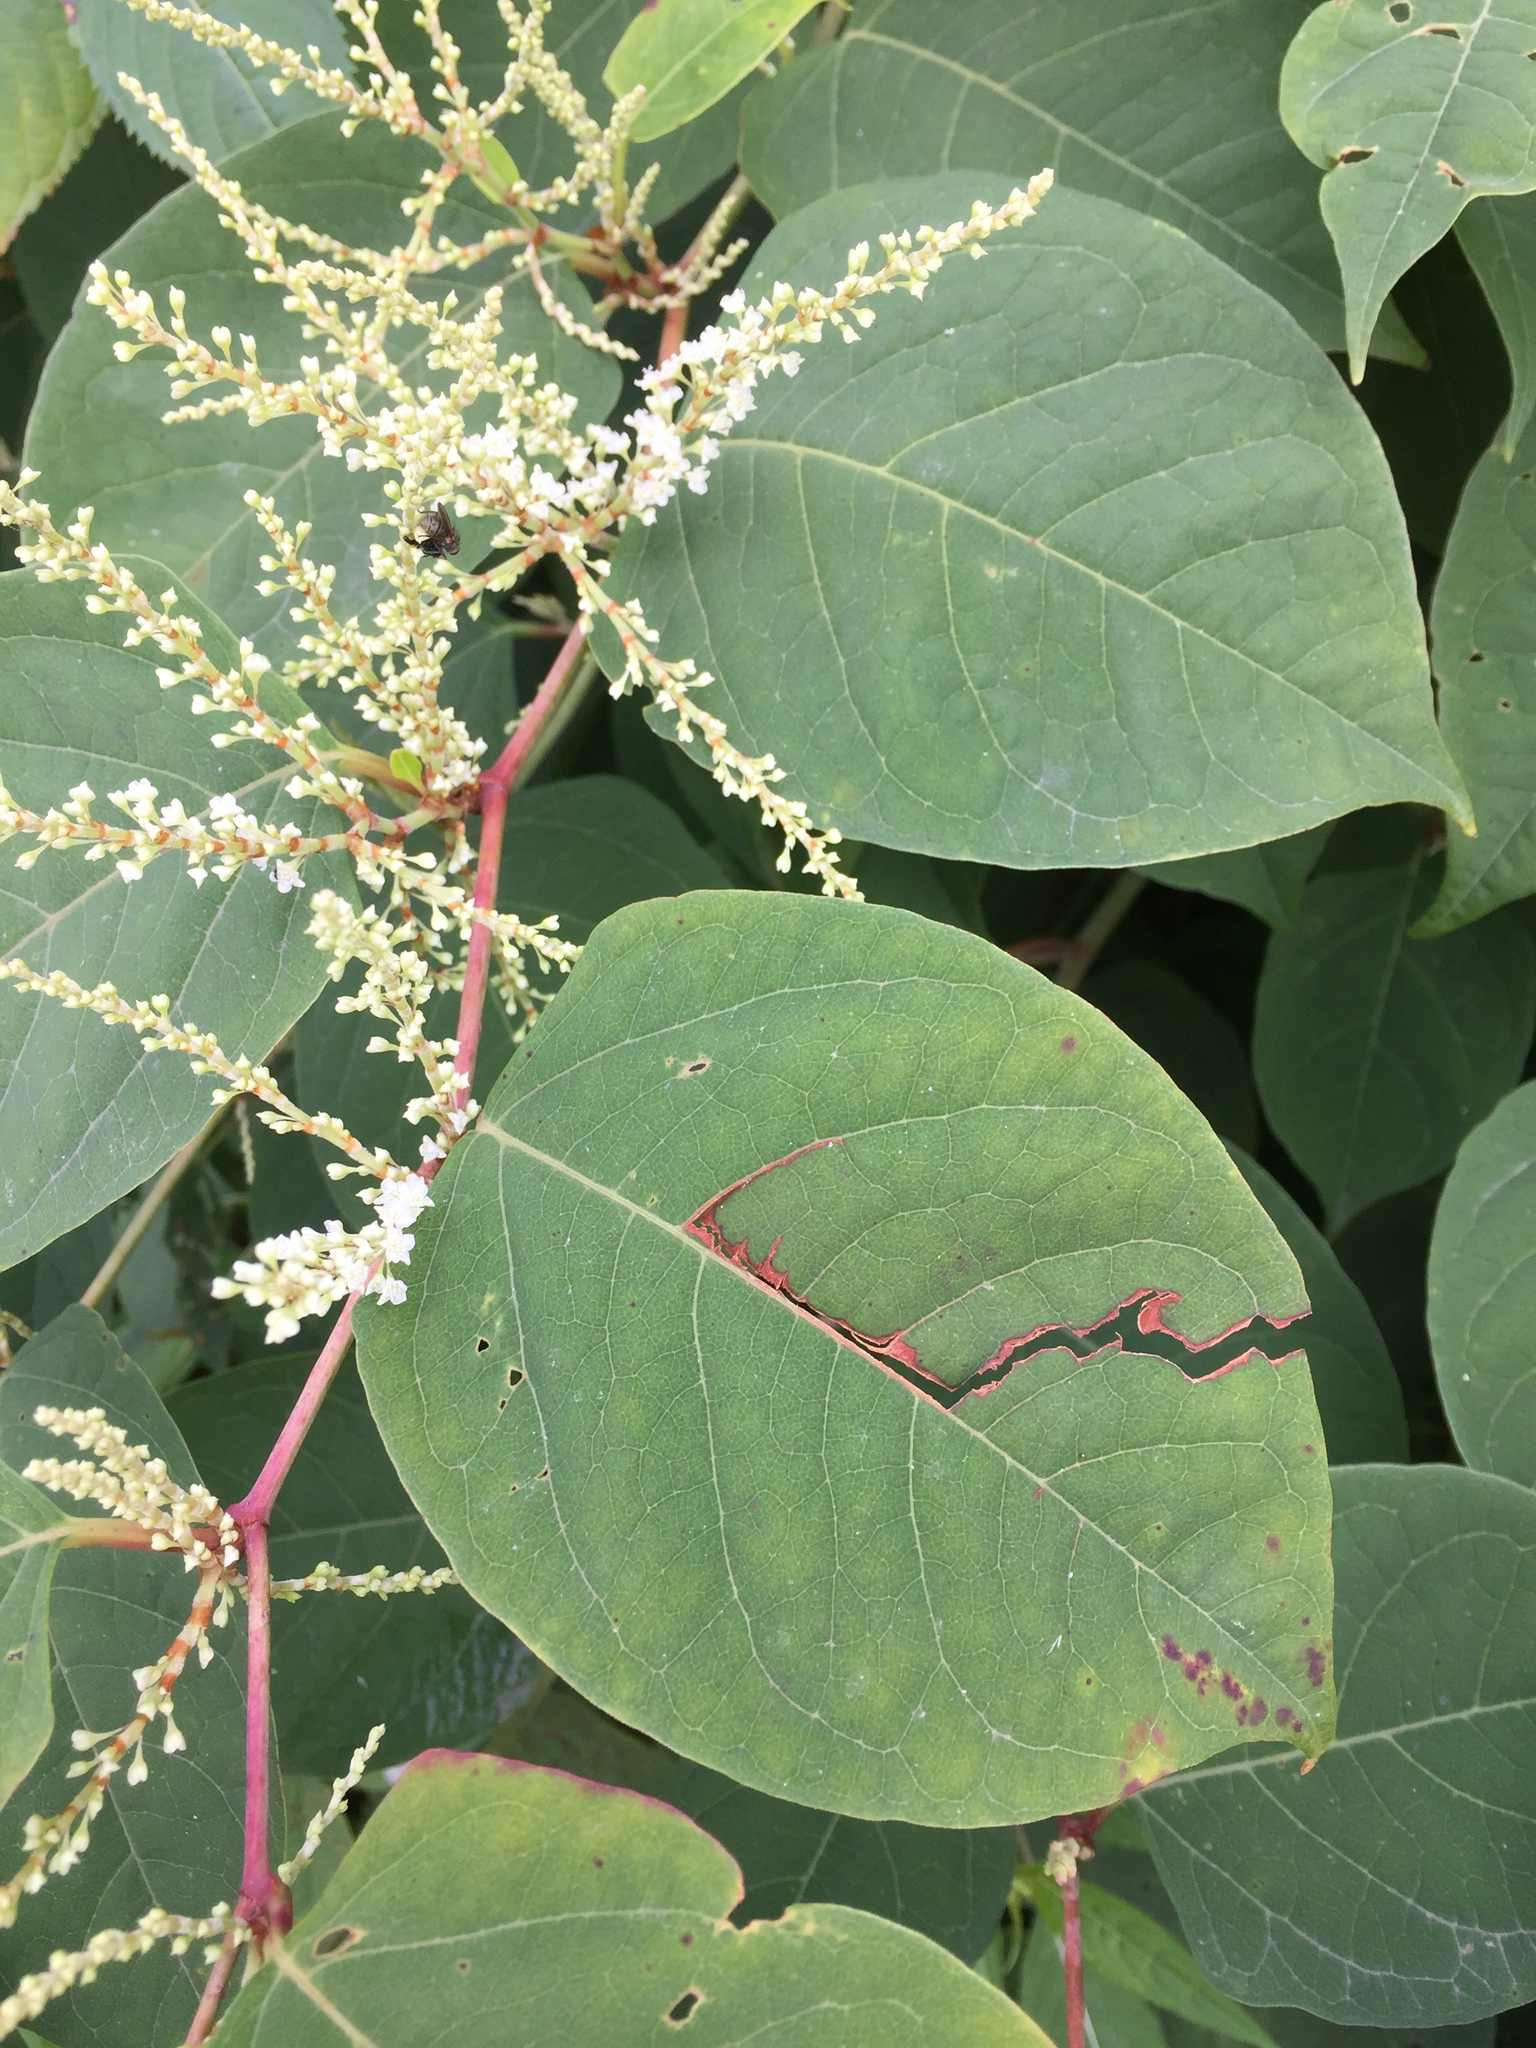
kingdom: Plantae
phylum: Tracheophyta
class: Magnoliopsida
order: Caryophyllales
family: Polygonaceae
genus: Reynoutria
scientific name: Reynoutria japonica
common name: Japanese knotweed
